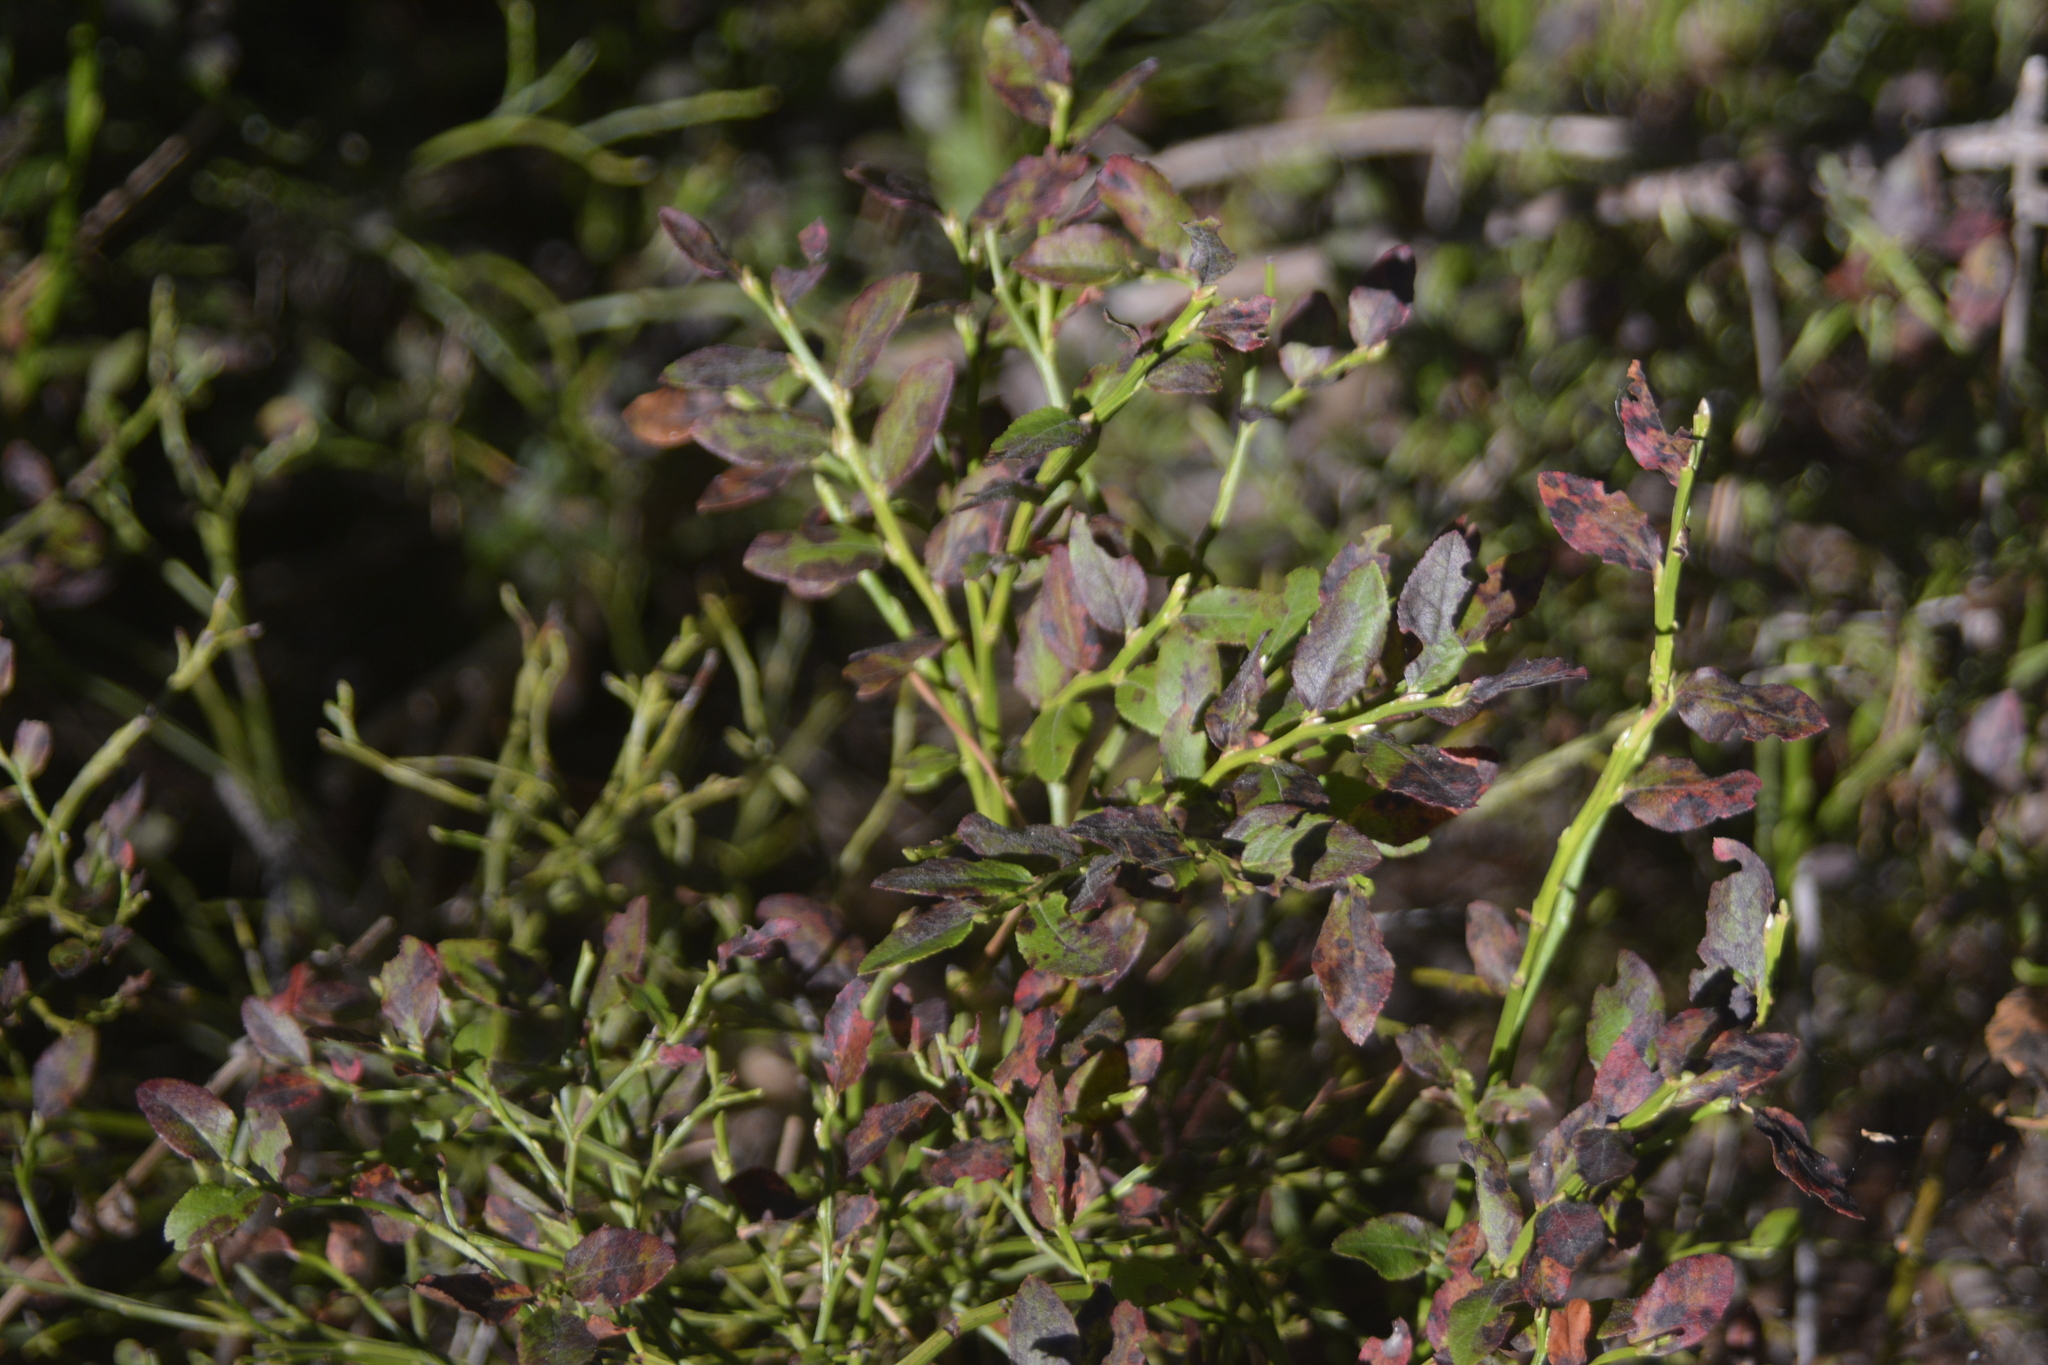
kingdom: Plantae
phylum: Tracheophyta
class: Magnoliopsida
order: Ericales
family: Ericaceae
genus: Vaccinium
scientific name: Vaccinium myrtillus
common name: Bilberry
